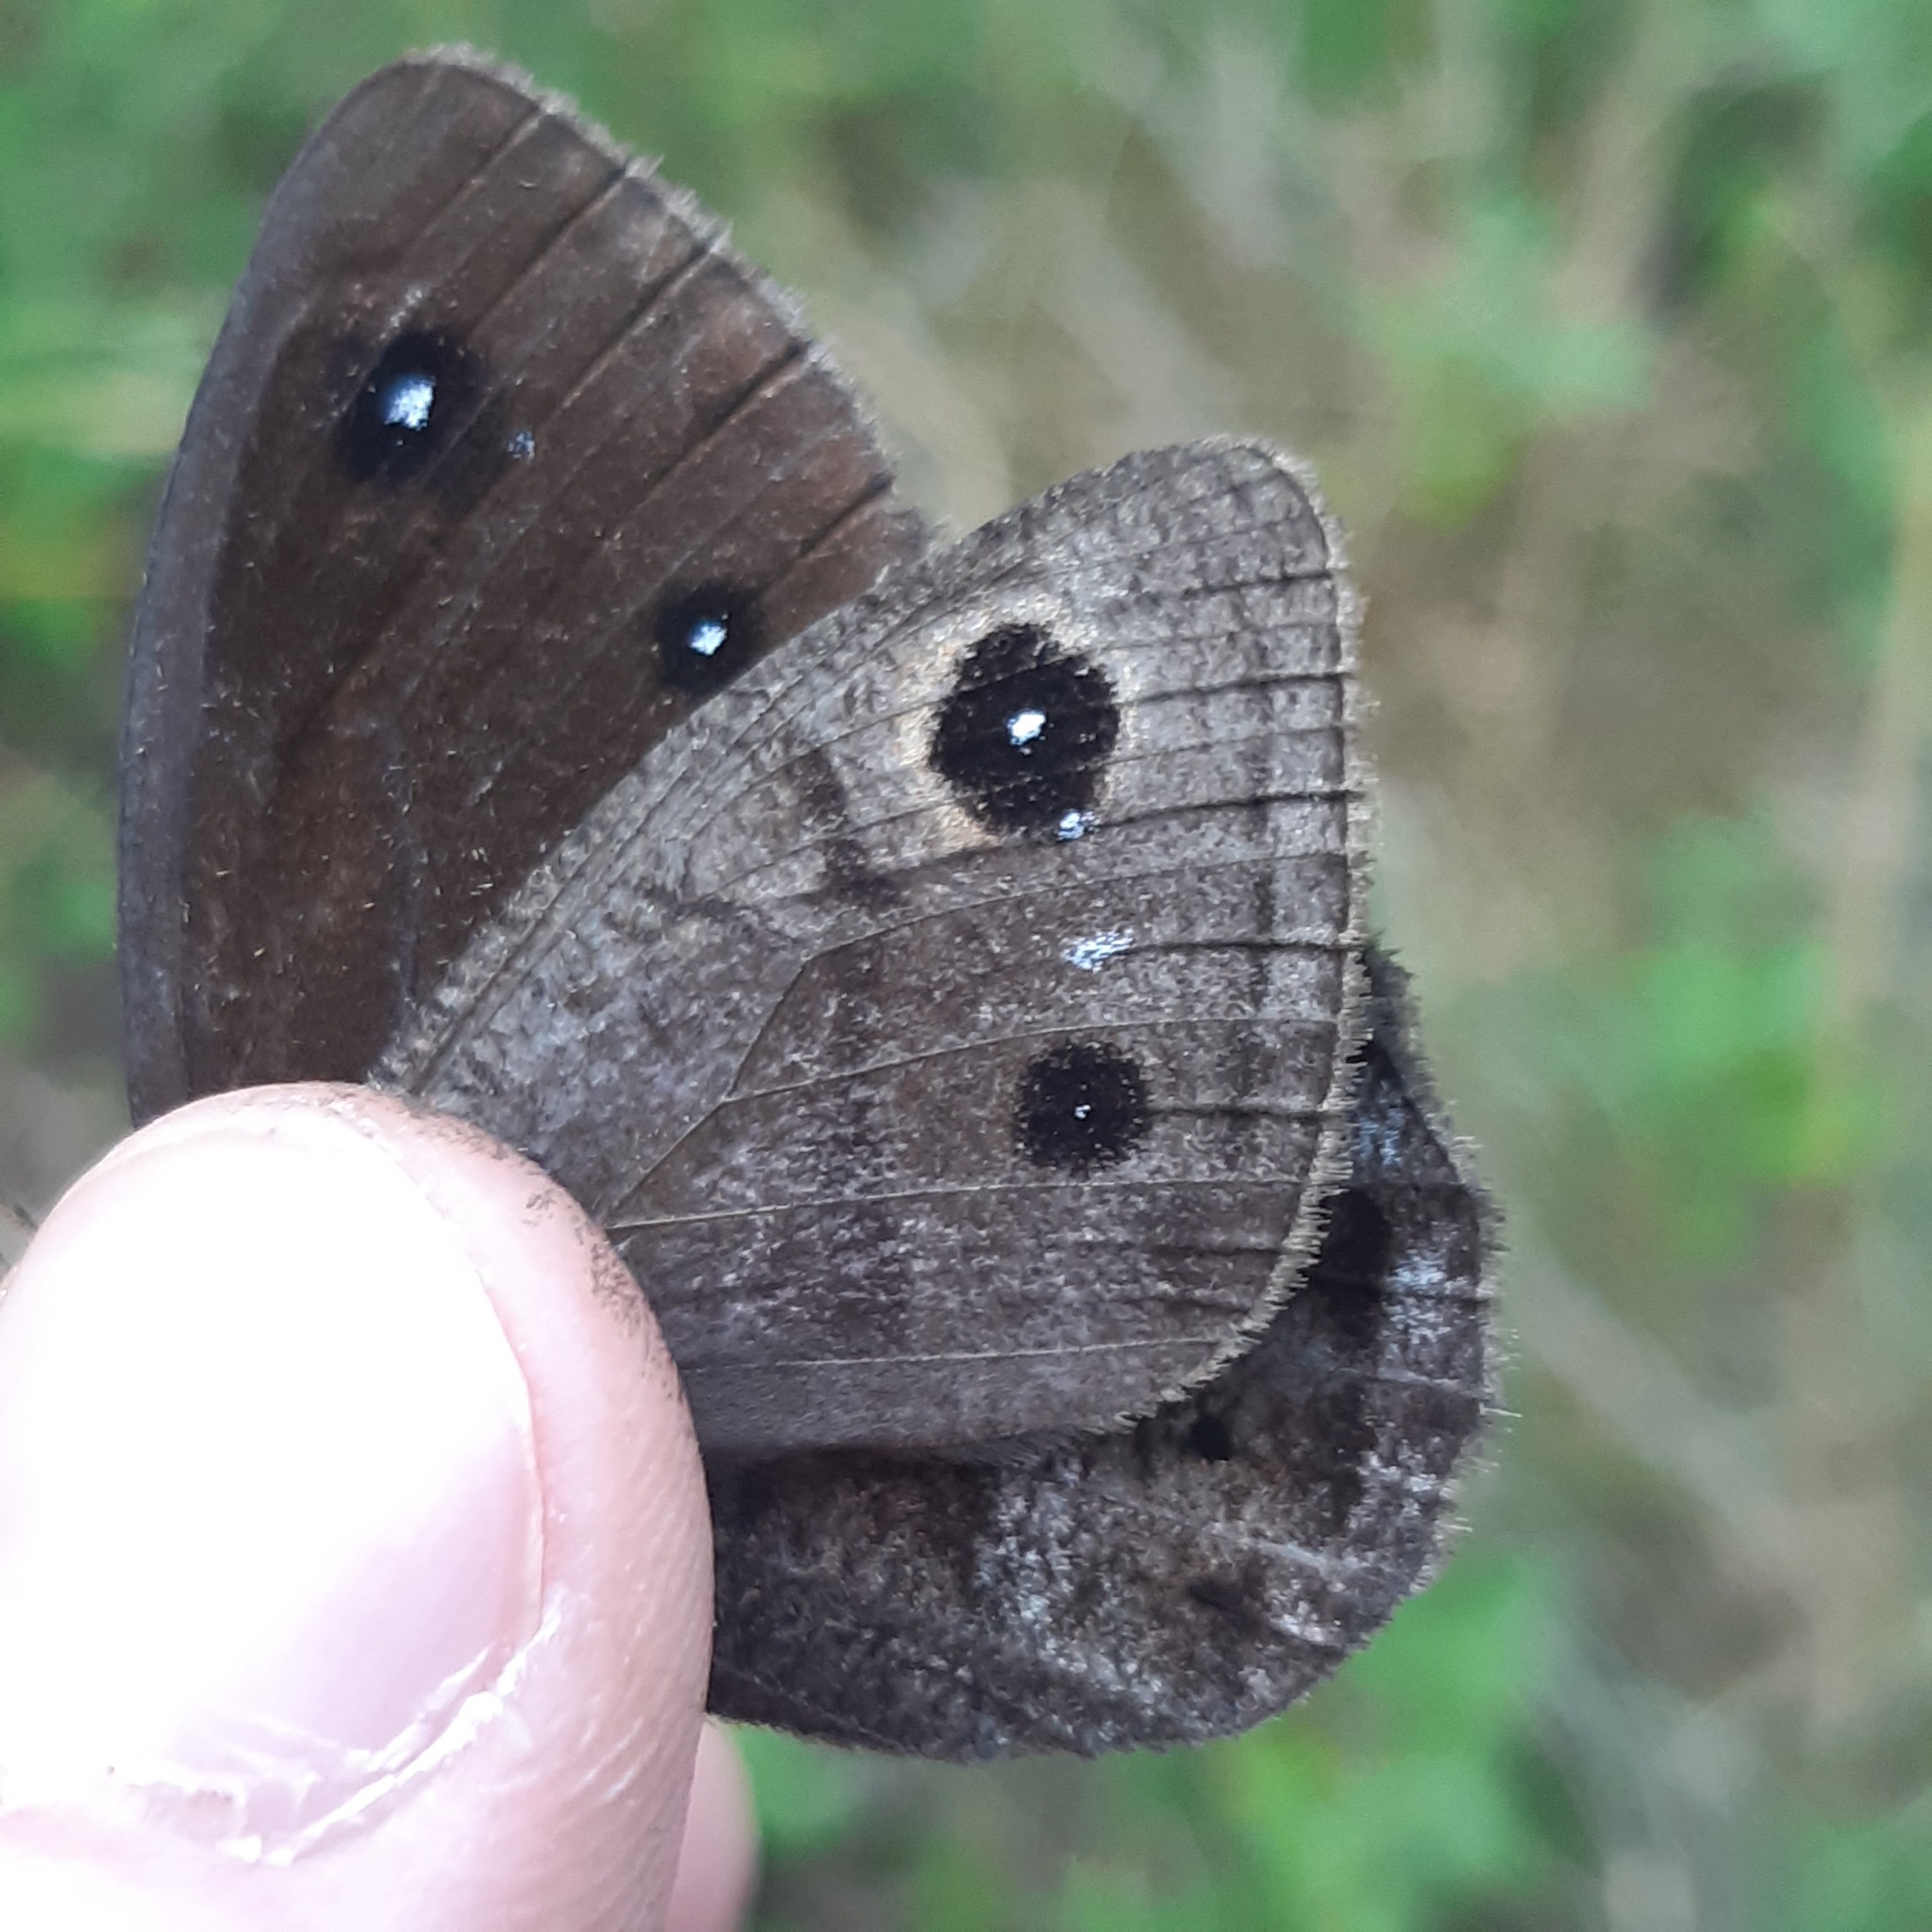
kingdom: Animalia
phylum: Arthropoda
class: Insecta
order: Lepidoptera
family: Nymphalidae
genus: Satyrus
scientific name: Satyrus ferula
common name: Great sooty satyr
